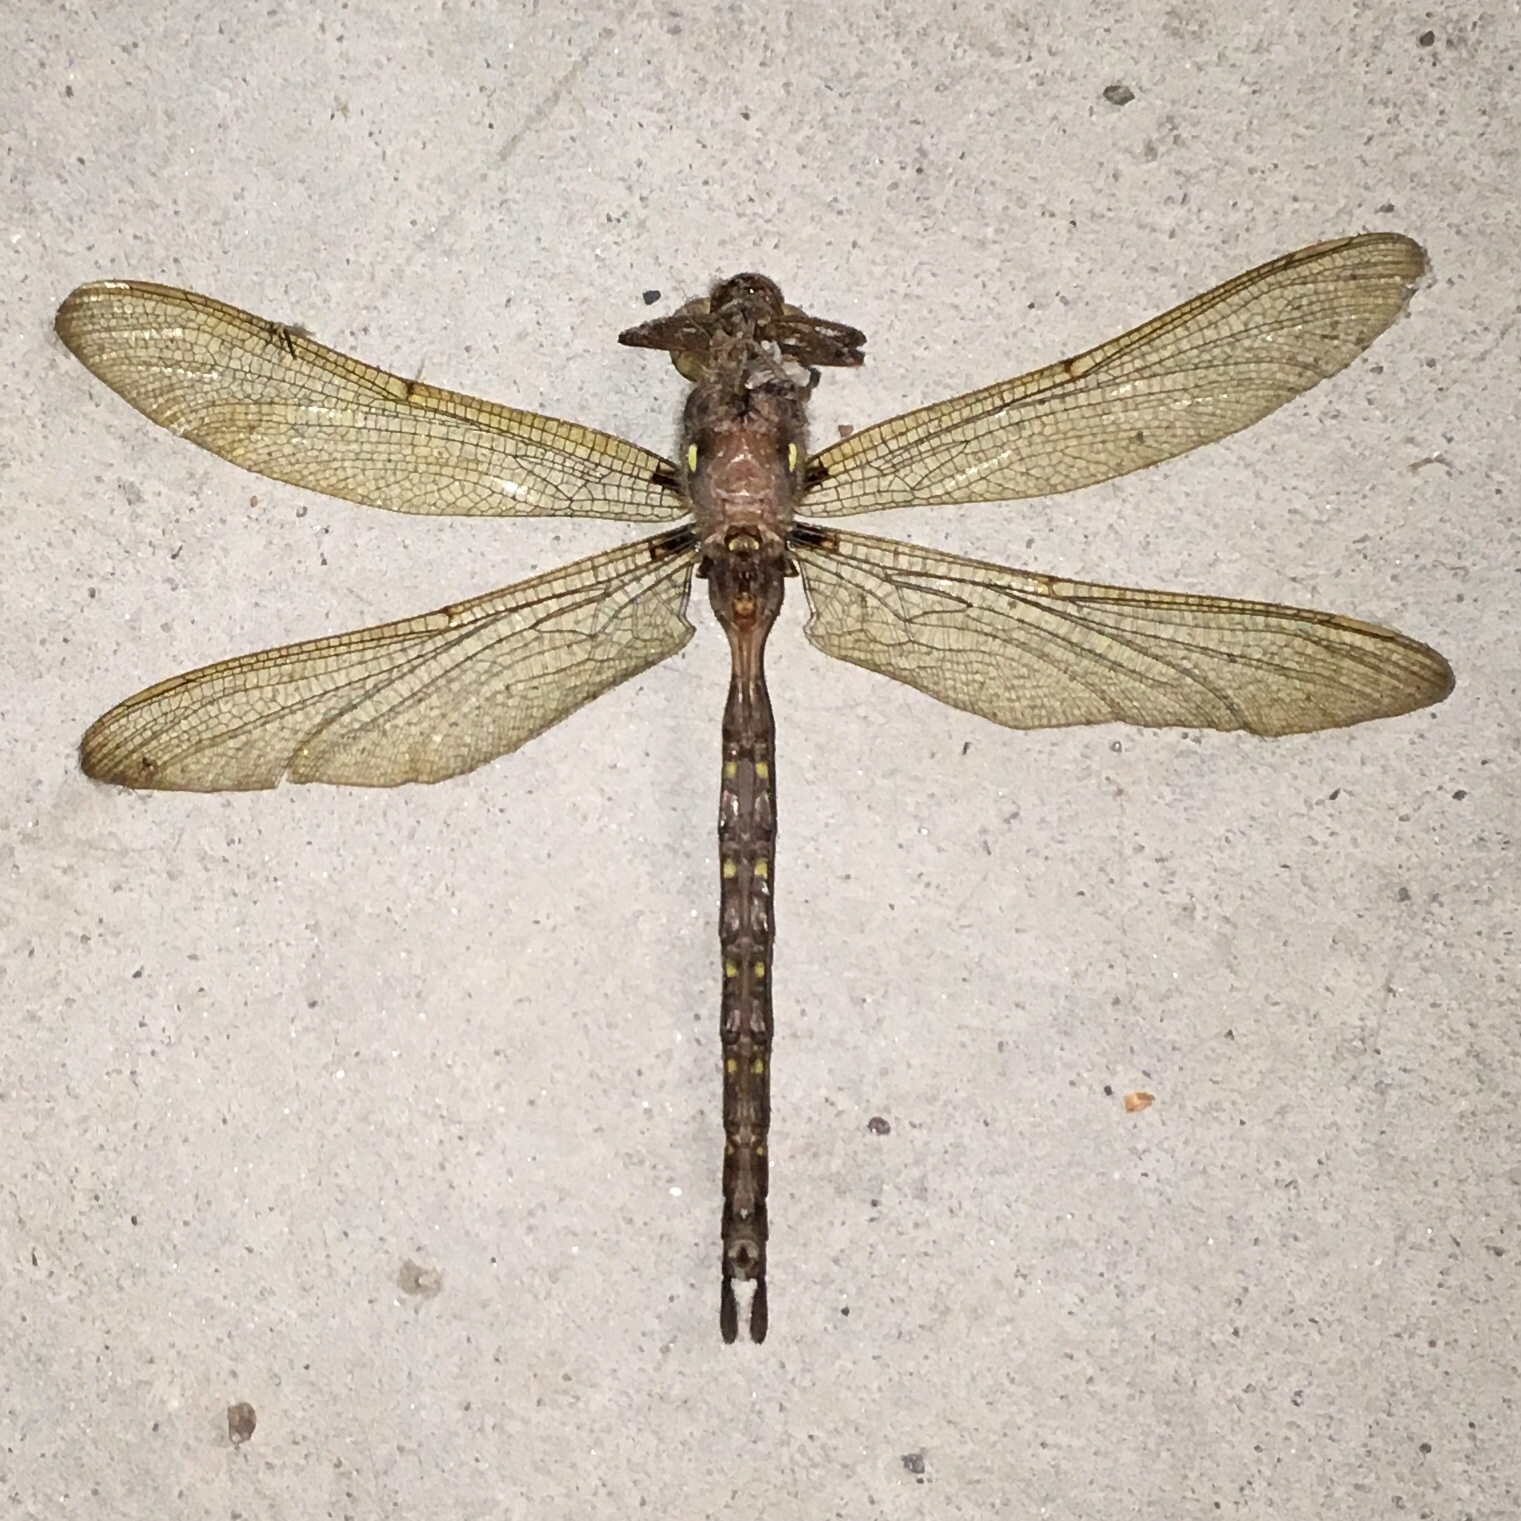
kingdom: Animalia
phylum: Arthropoda
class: Insecta
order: Odonata
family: Aeshnidae
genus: Boyeria
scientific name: Boyeria vinosa
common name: Fawn darner
